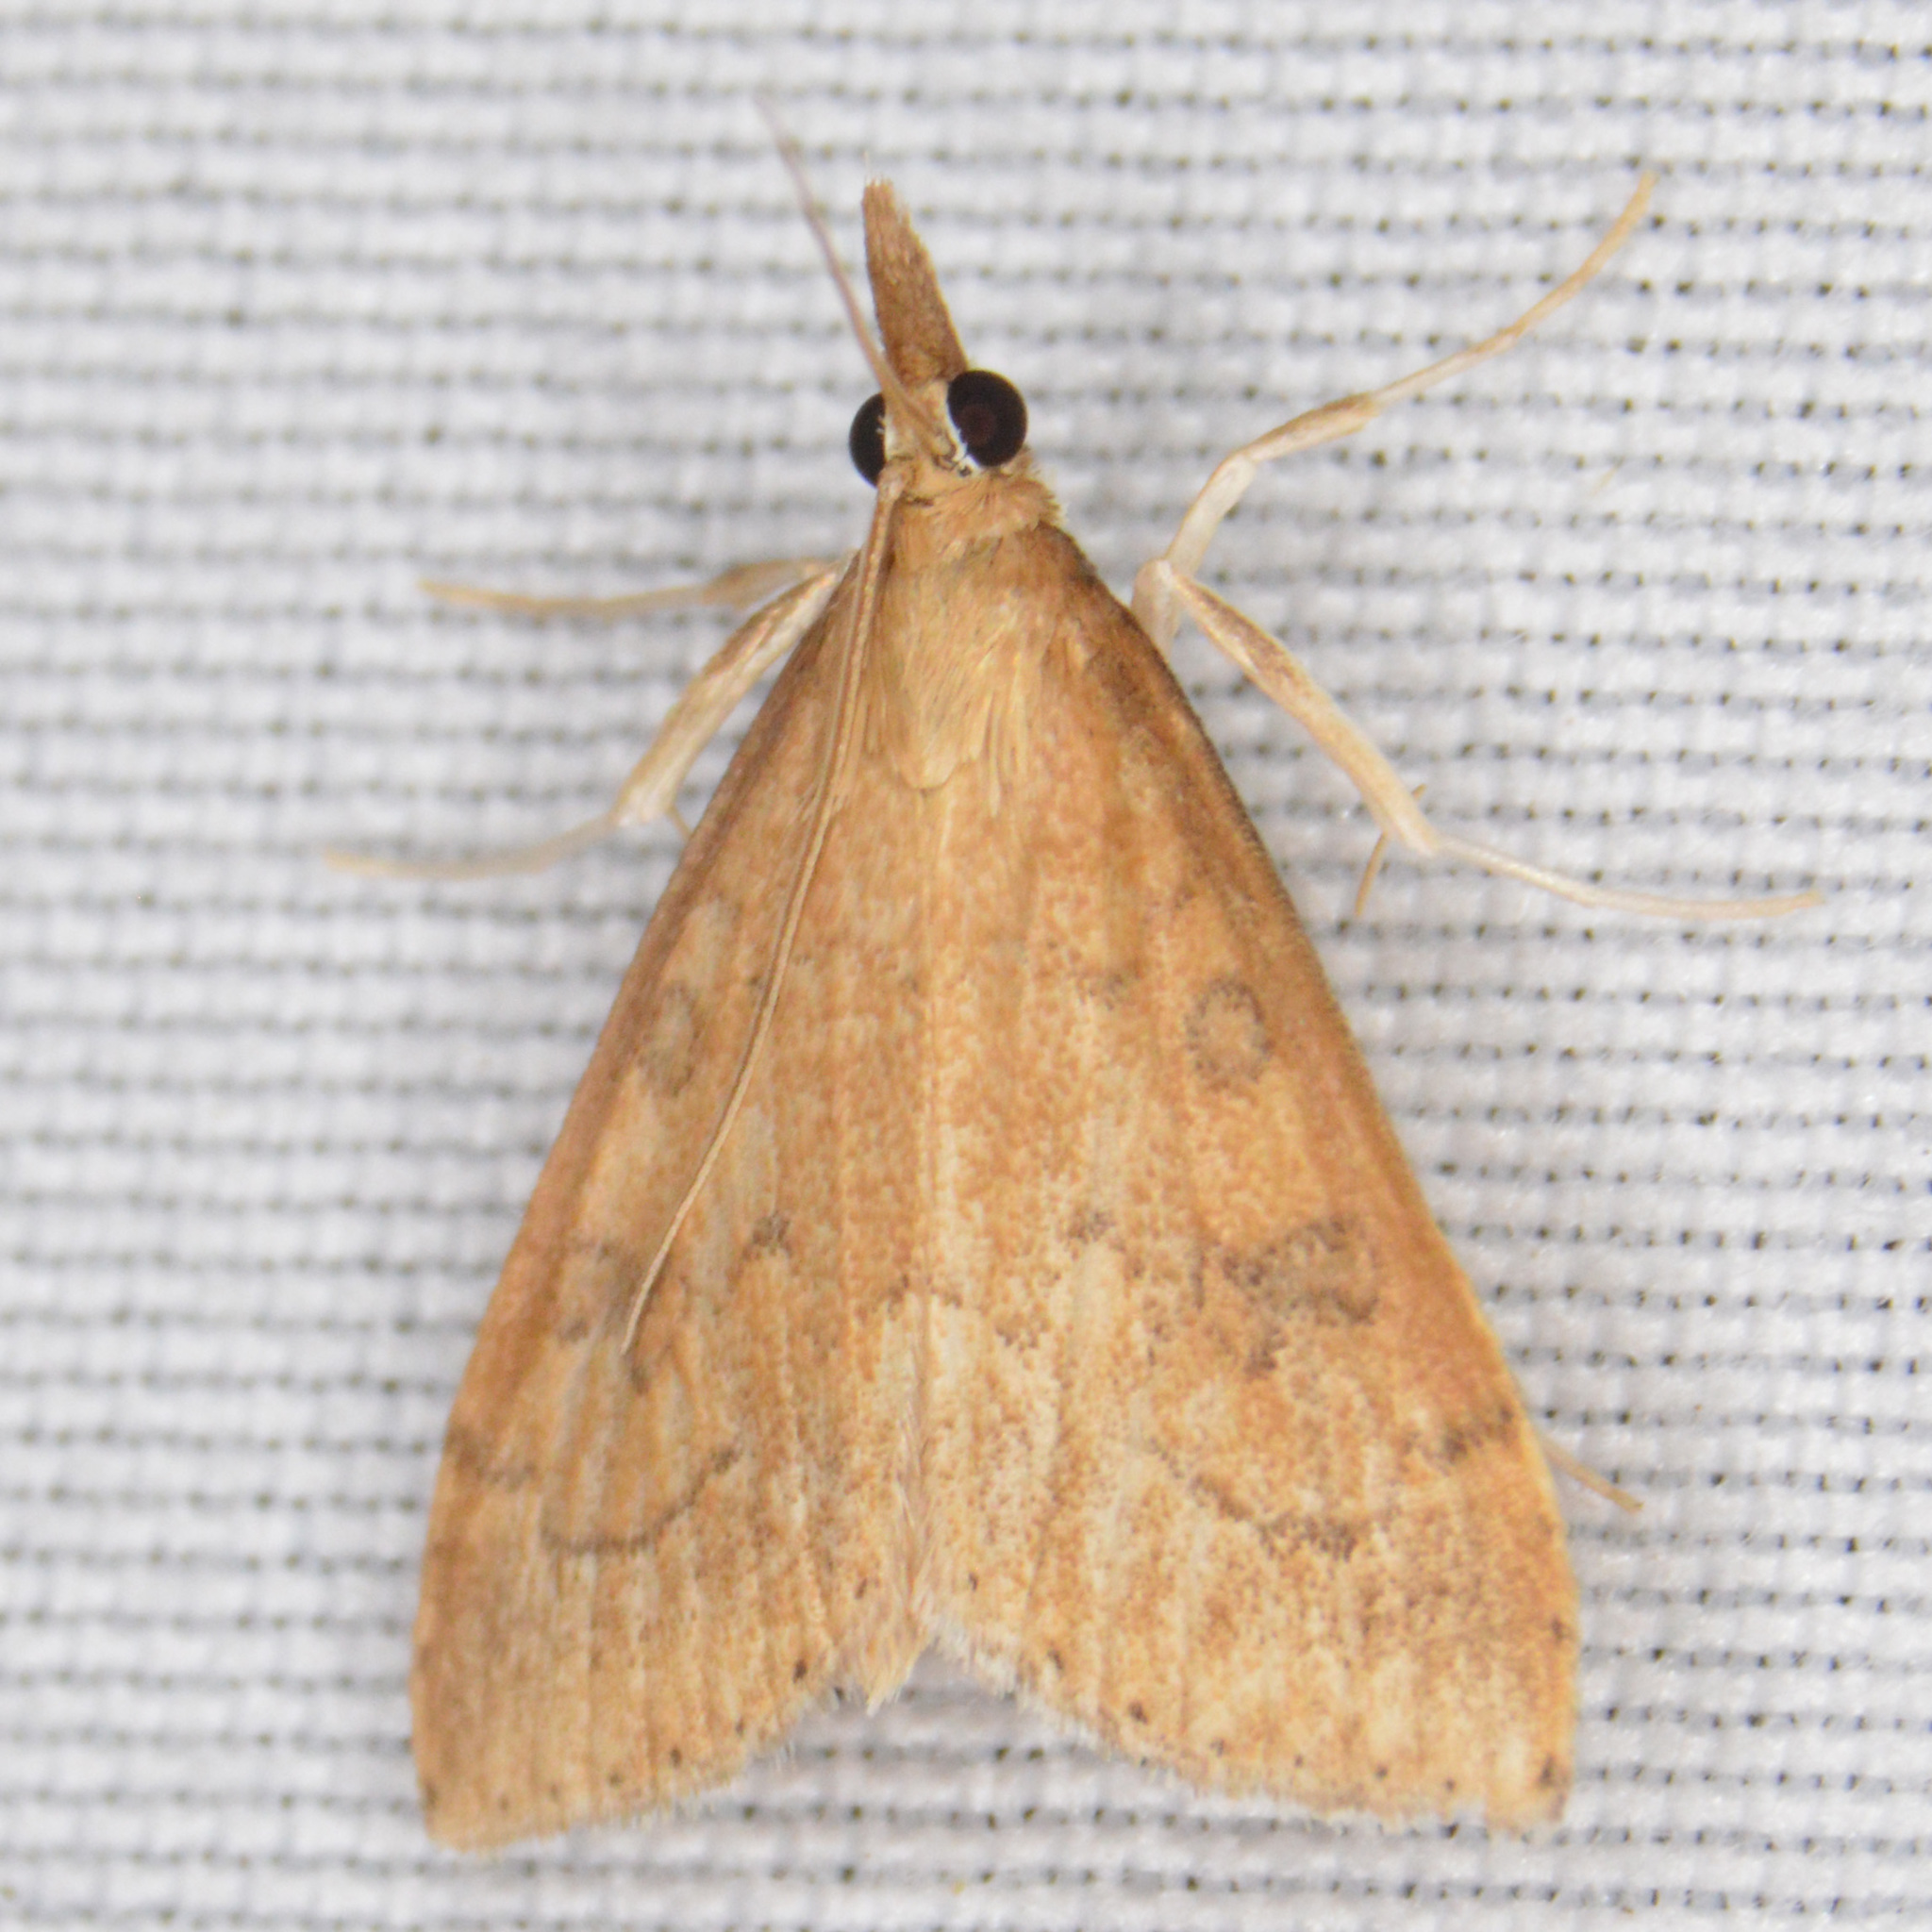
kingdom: Animalia
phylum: Arthropoda
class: Insecta
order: Lepidoptera
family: Crambidae
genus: Udea
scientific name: Udea rubigalis
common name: Celery leaftier moth
